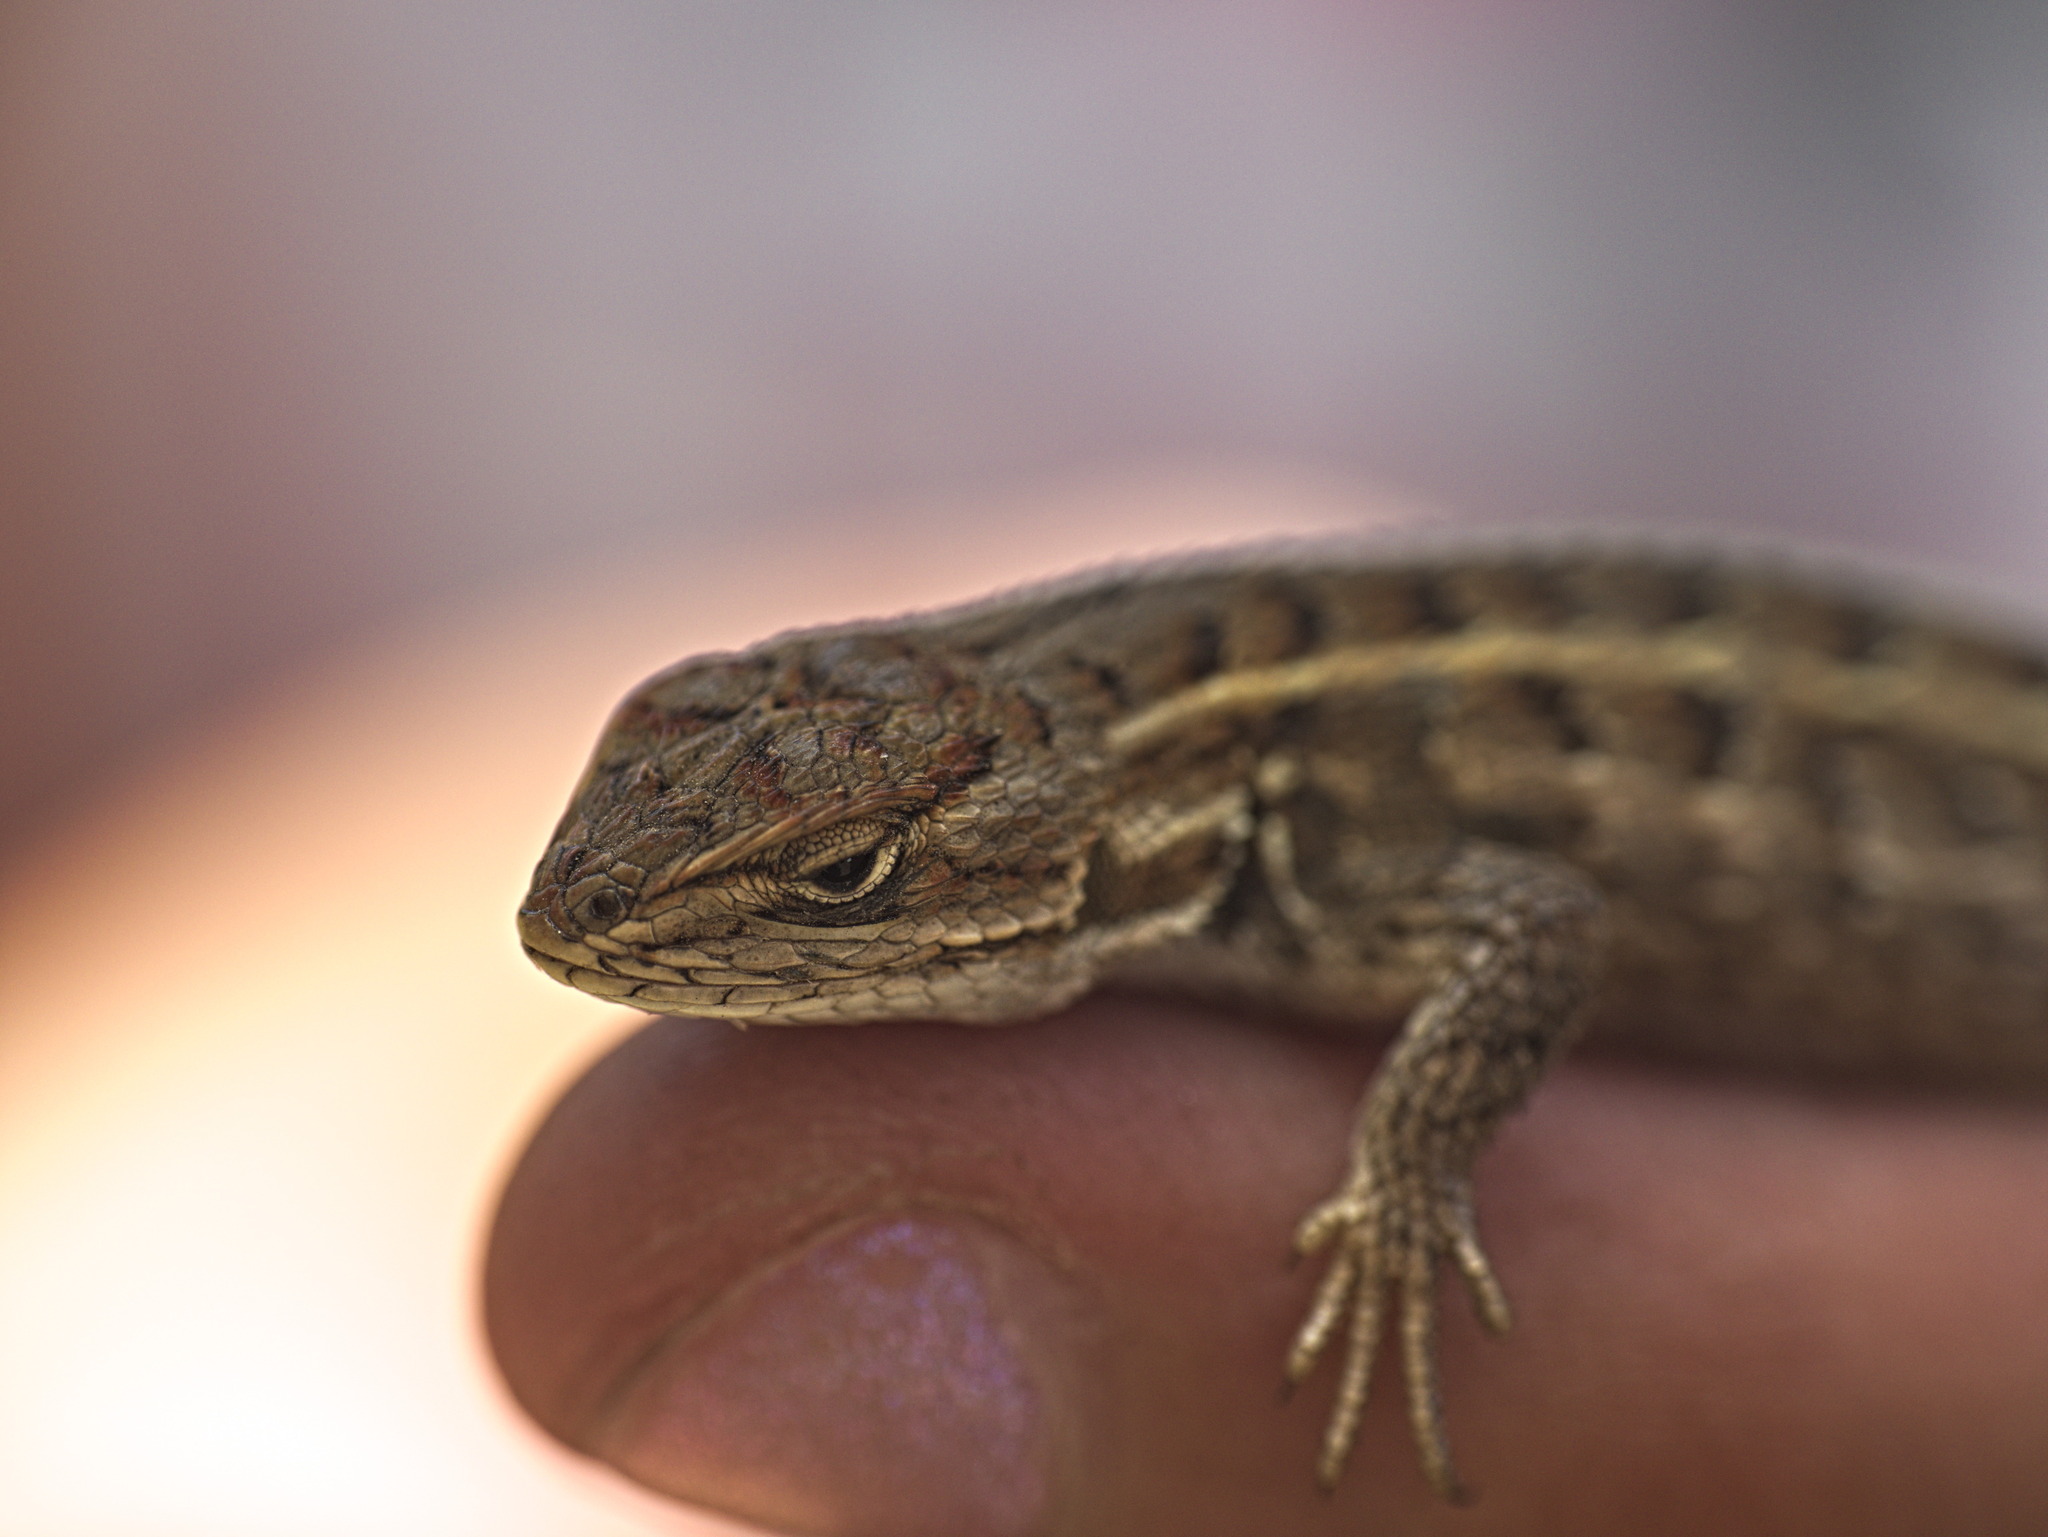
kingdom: Animalia
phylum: Chordata
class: Squamata
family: Phrynosomatidae
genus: Sceloporus
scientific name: Sceloporus aeneus
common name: Black-bellied bunchgrass lizard
